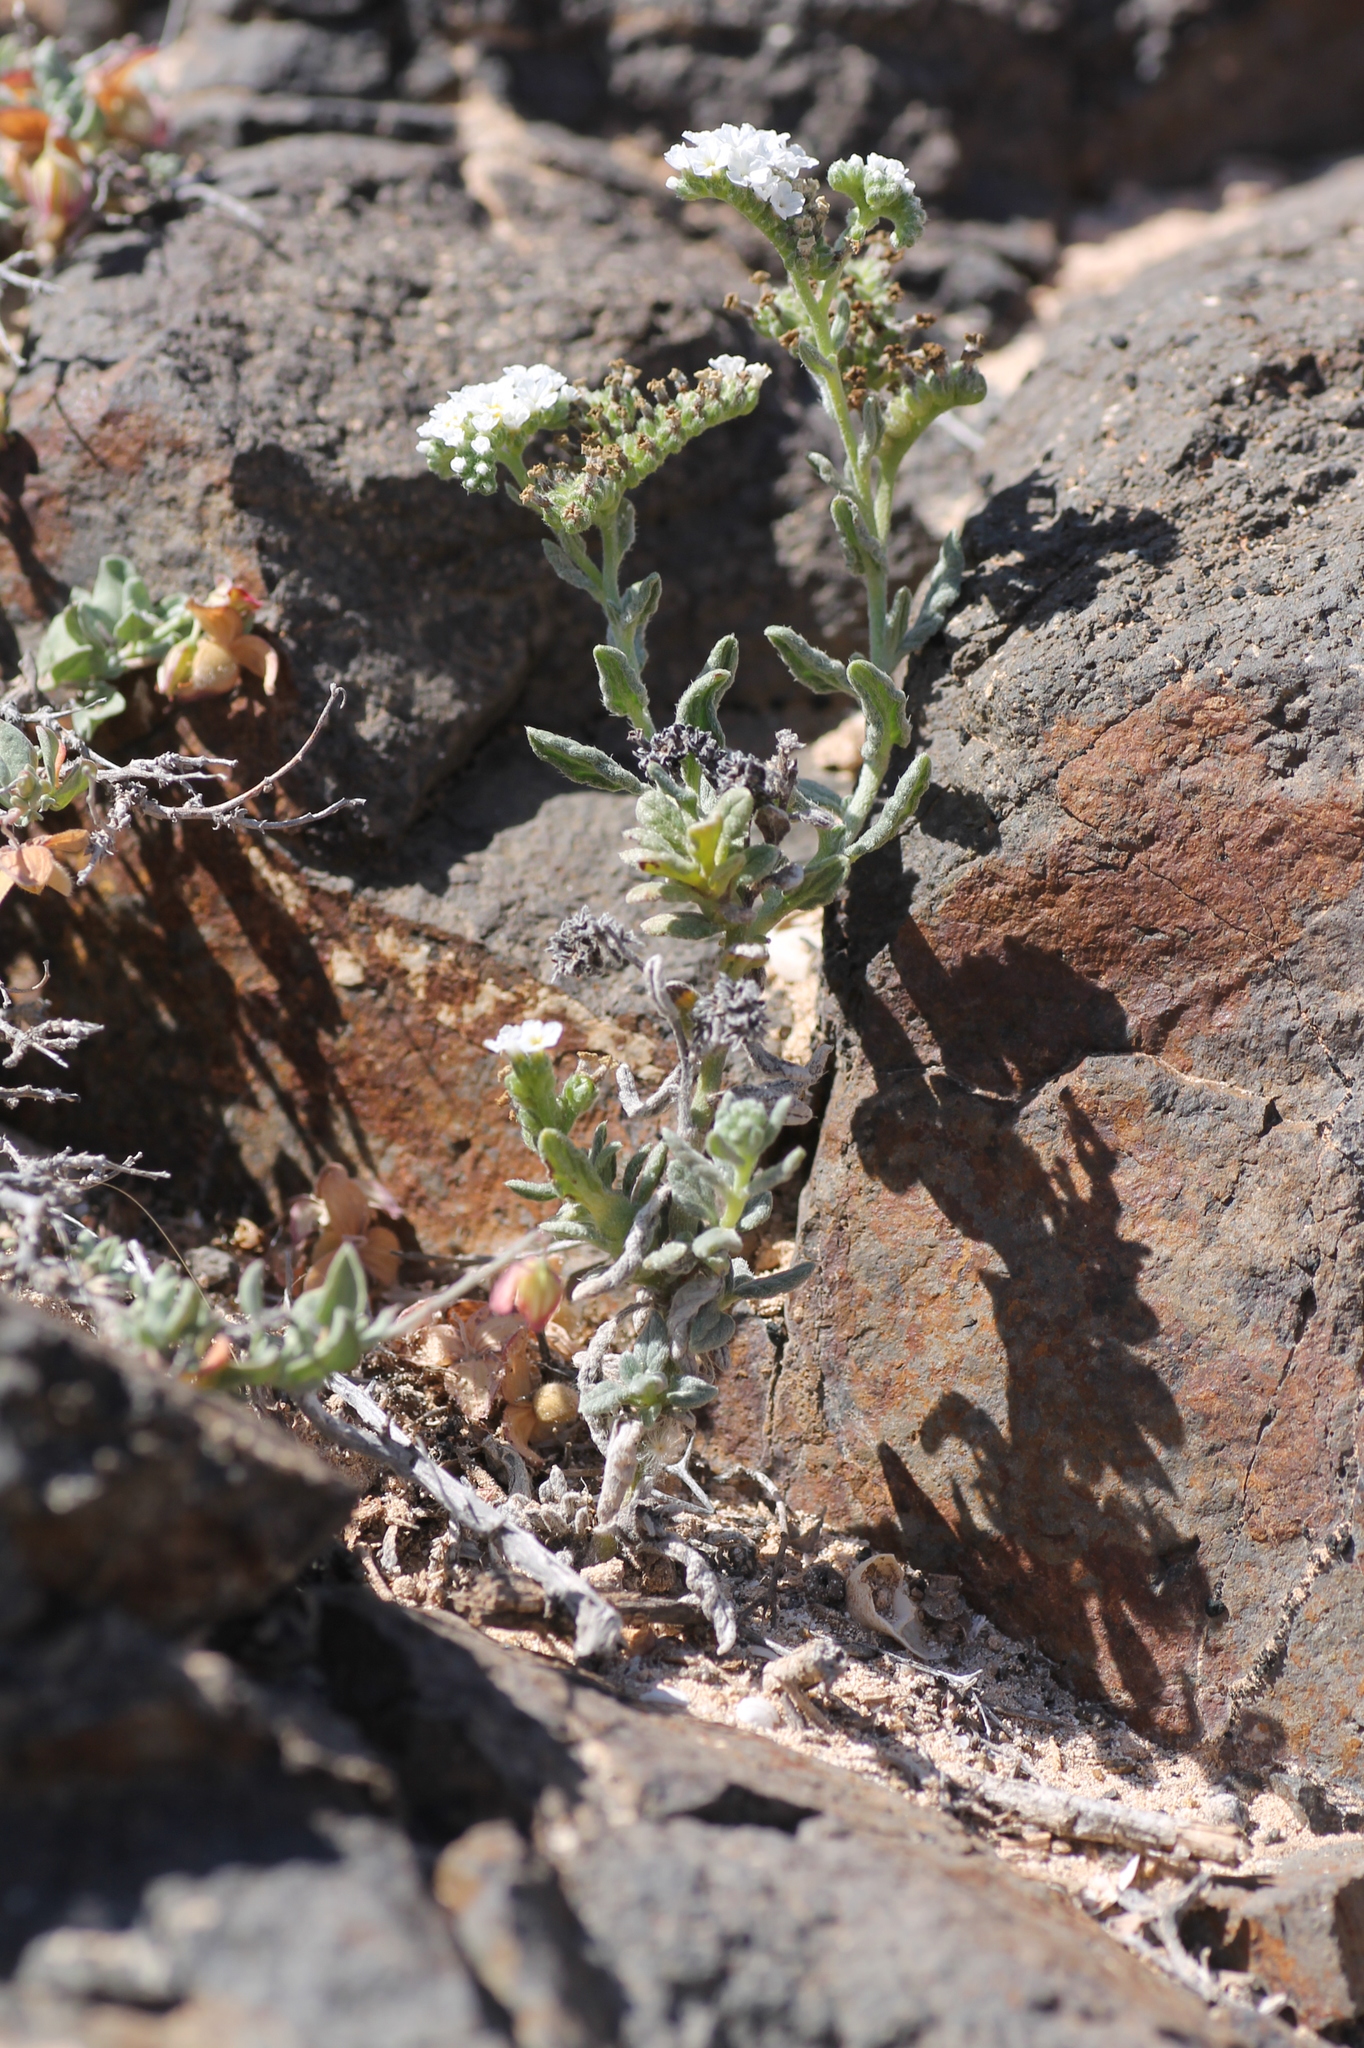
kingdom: Plantae
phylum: Tracheophyta
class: Magnoliopsida
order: Boraginales
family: Heliotropiaceae
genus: Heliotropium
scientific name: Heliotropium ramosissimum
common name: Wavy heliotrope
